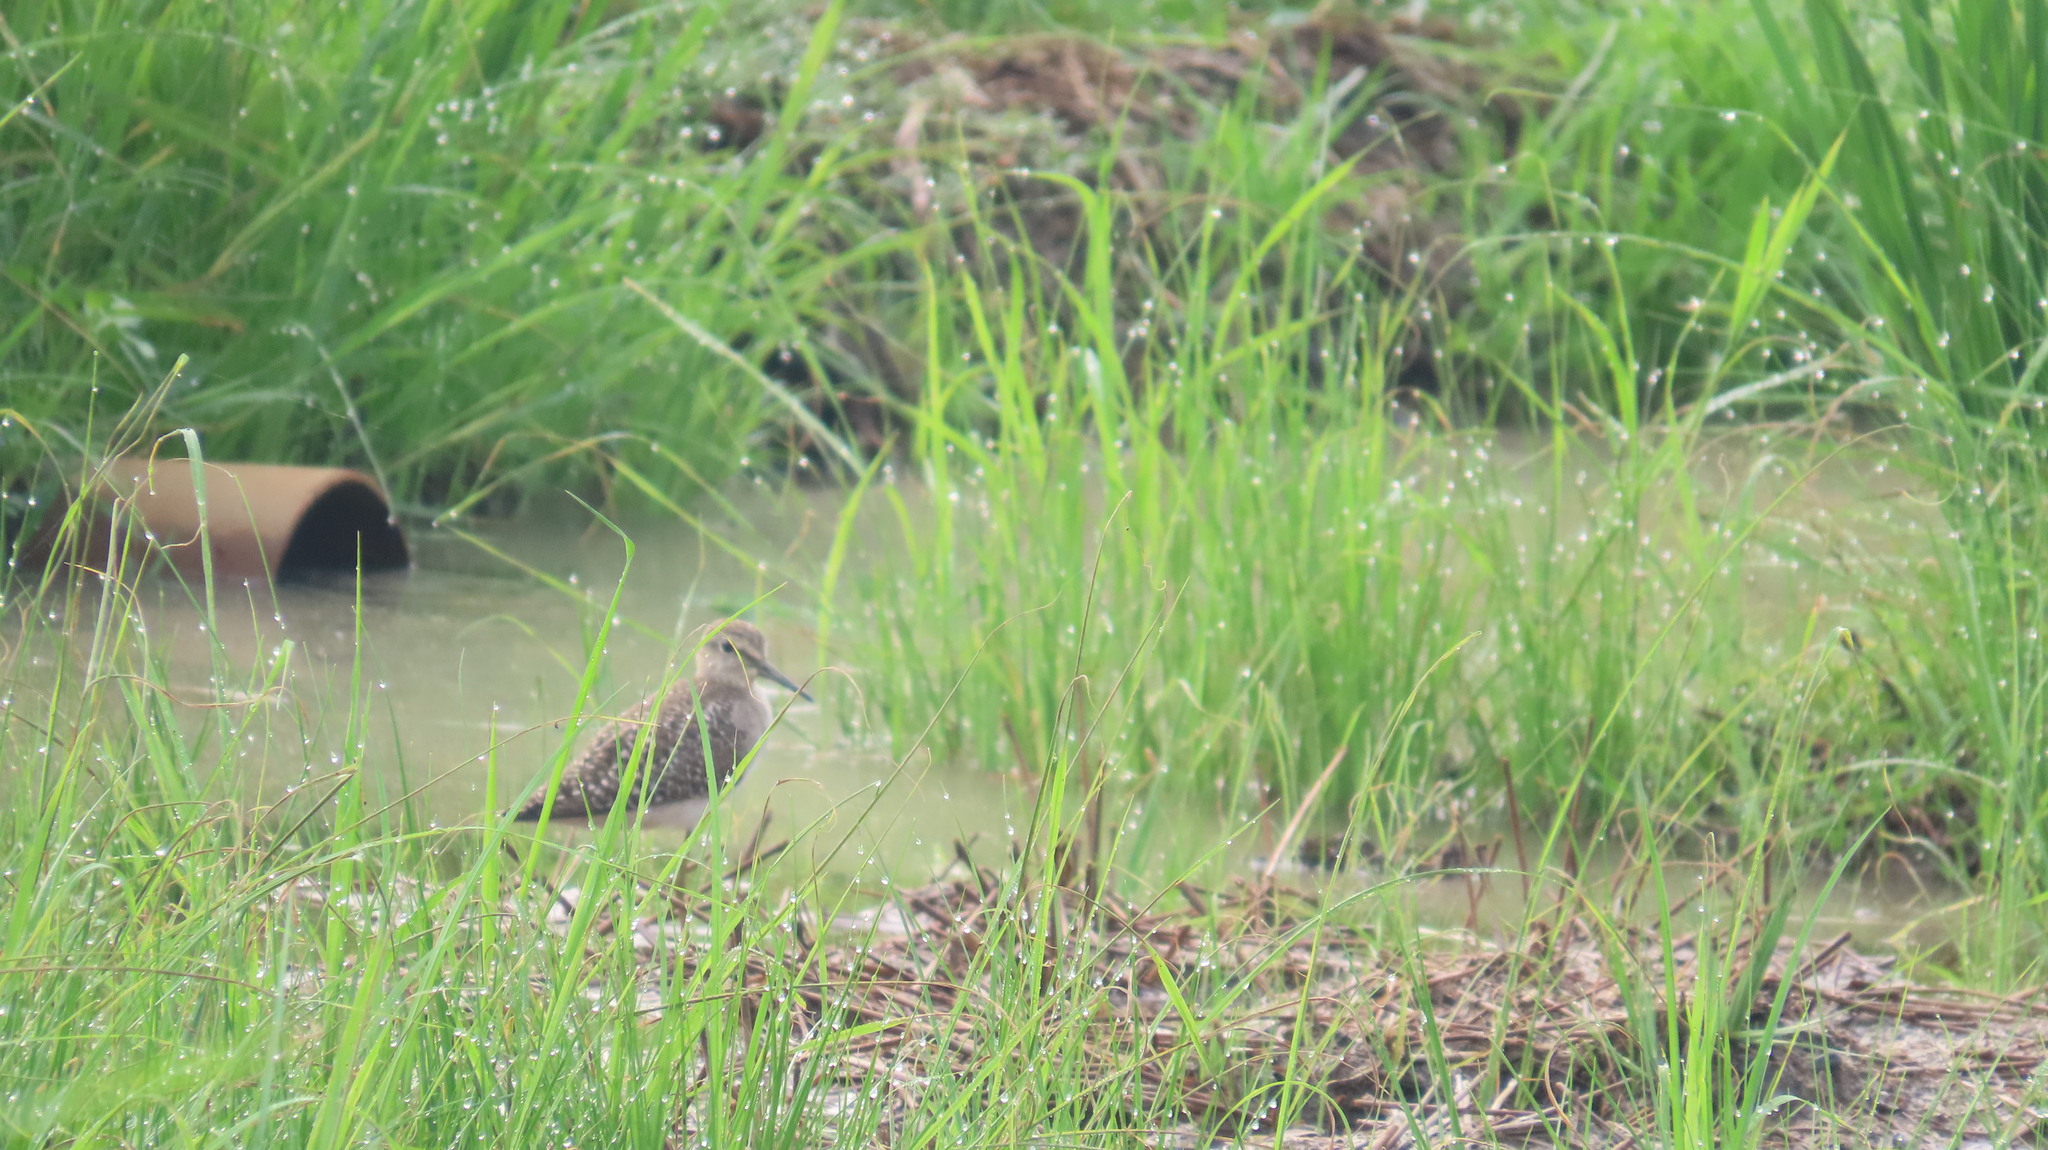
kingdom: Animalia
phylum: Chordata
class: Aves
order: Charadriiformes
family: Scolopacidae
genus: Tringa
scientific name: Tringa glareola
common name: Wood sandpiper
